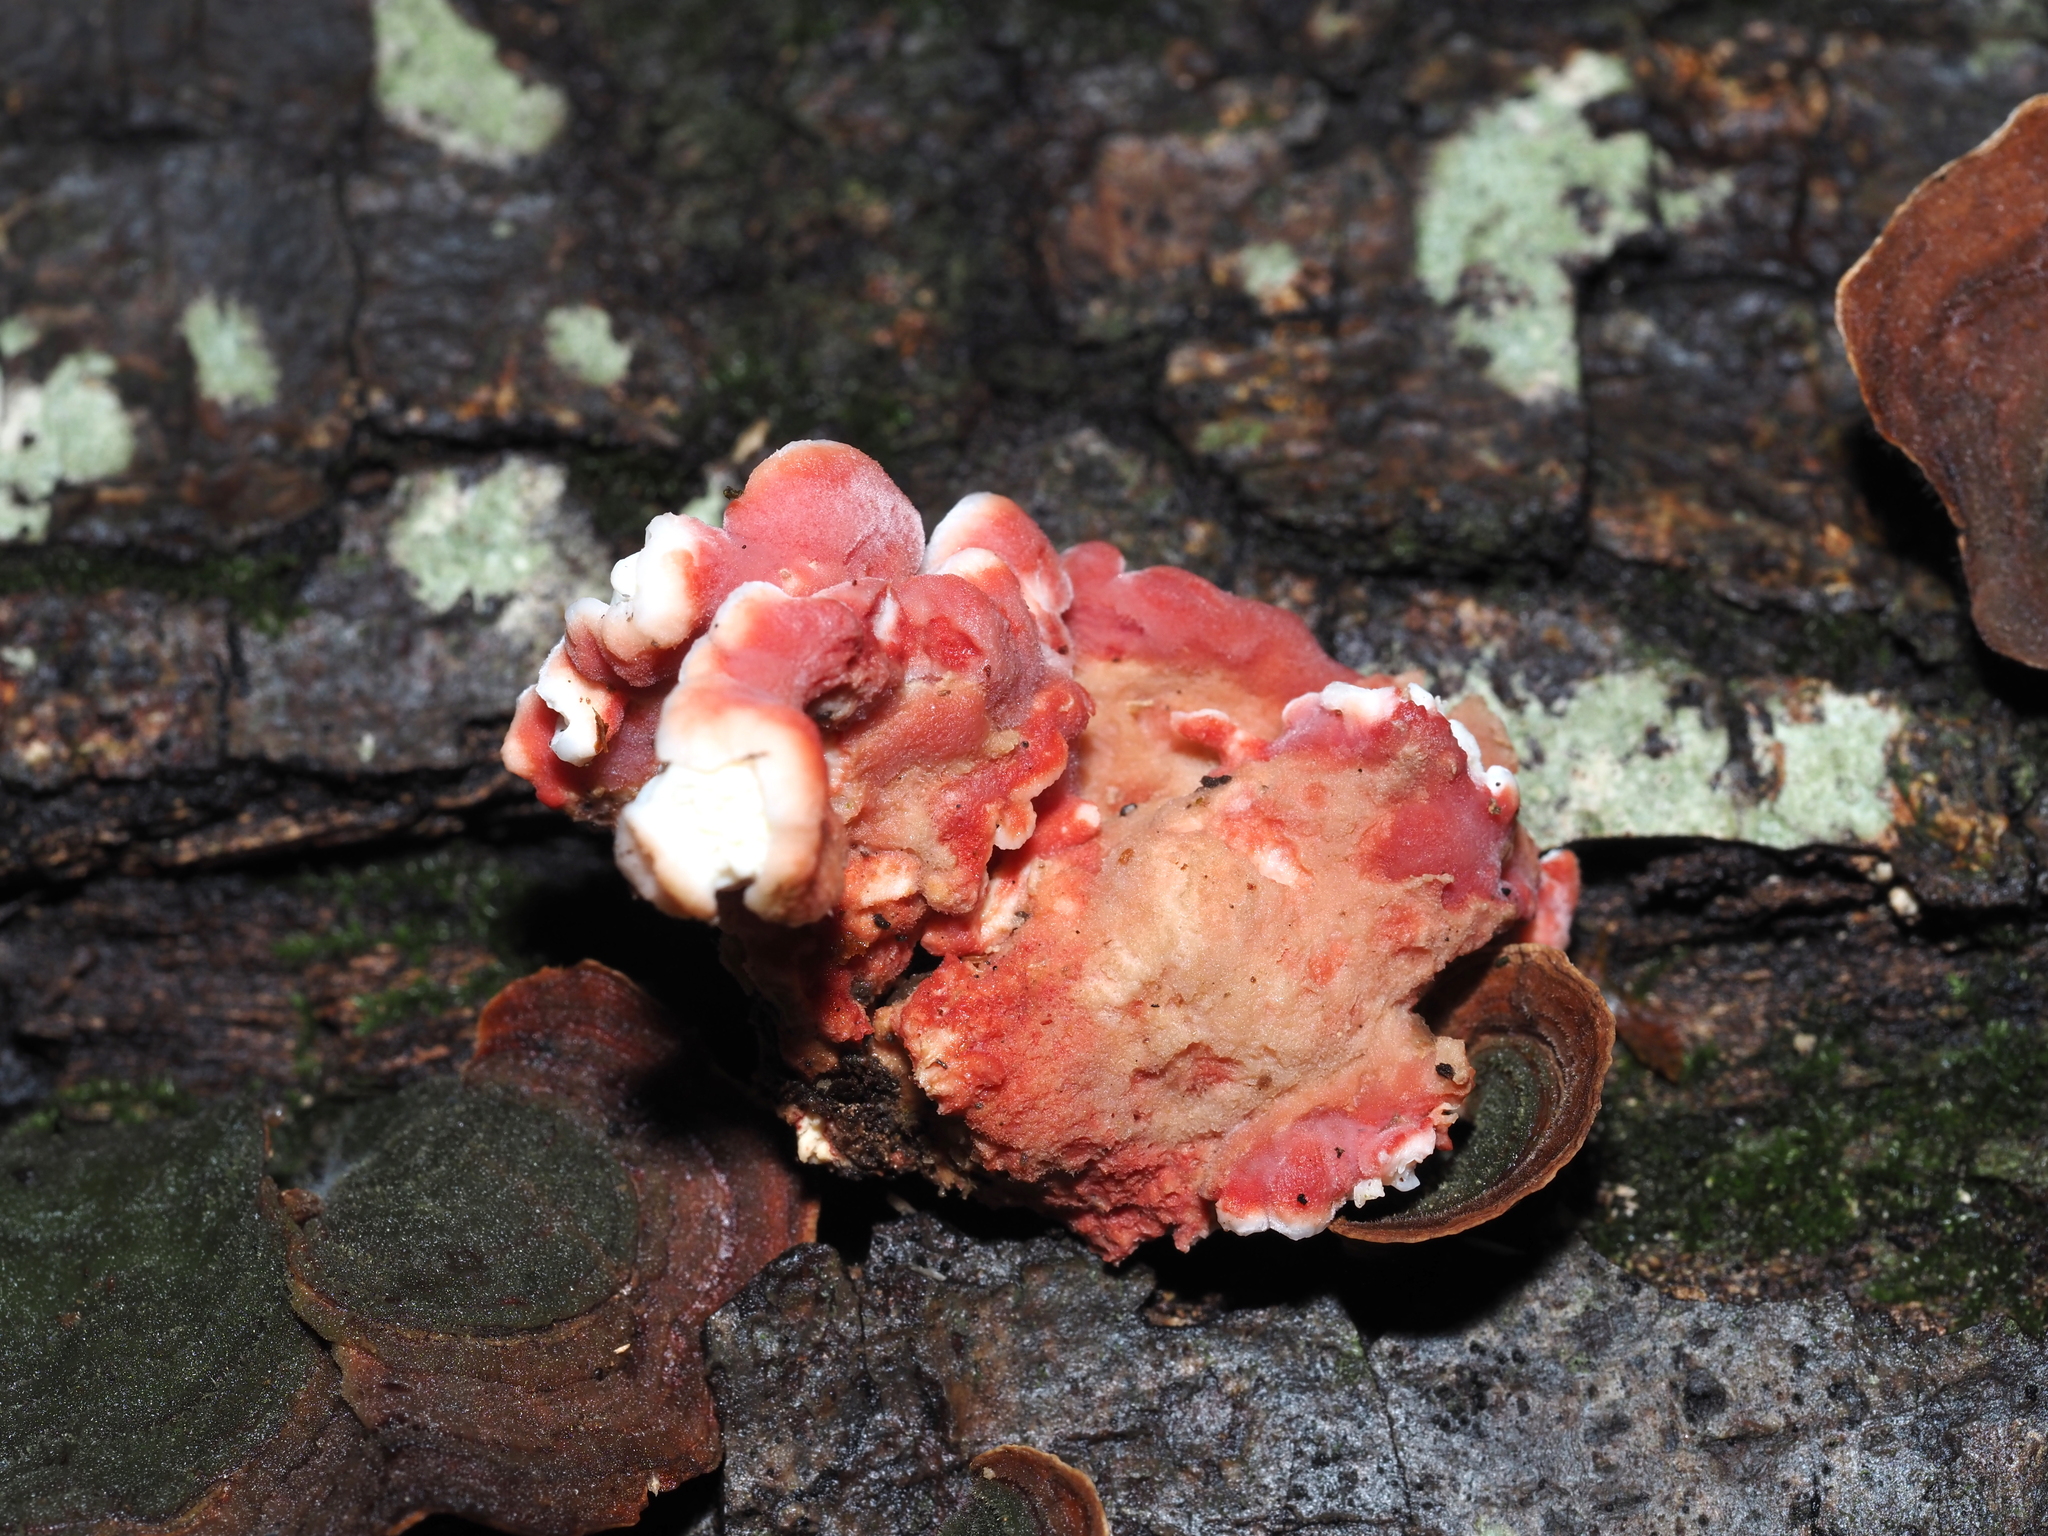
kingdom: Fungi
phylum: Basidiomycota
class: Agaricomycetes
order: Polyporales
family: Irpicaceae
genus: Byssomerulius
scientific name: Byssomerulius incarnatus
